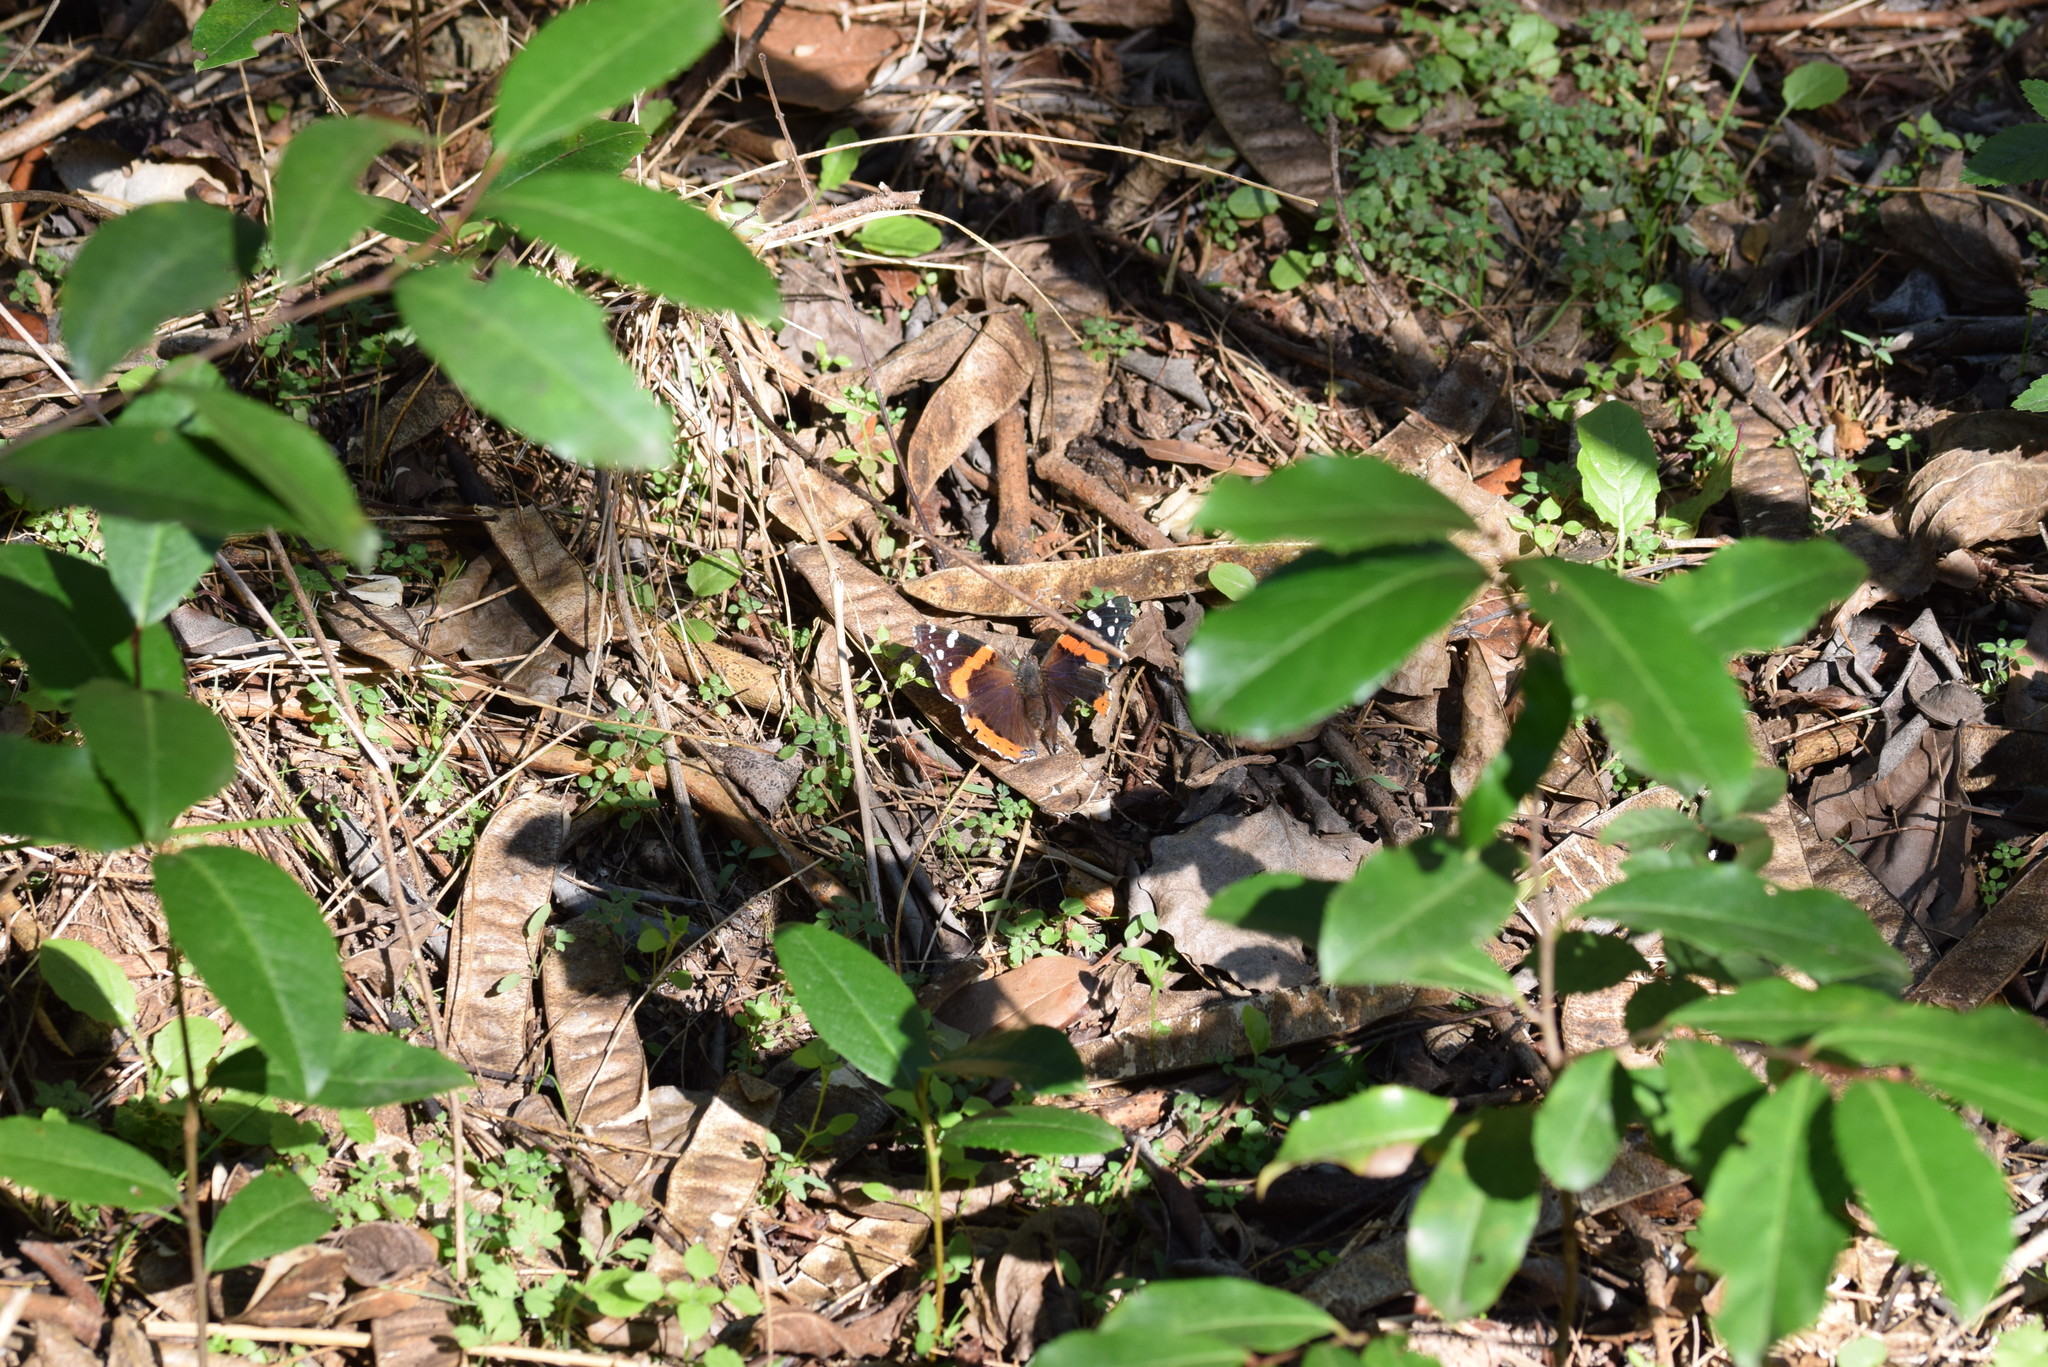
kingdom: Animalia
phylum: Arthropoda
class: Insecta
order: Lepidoptera
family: Nymphalidae
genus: Vanessa
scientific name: Vanessa atalanta
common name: Red admiral
